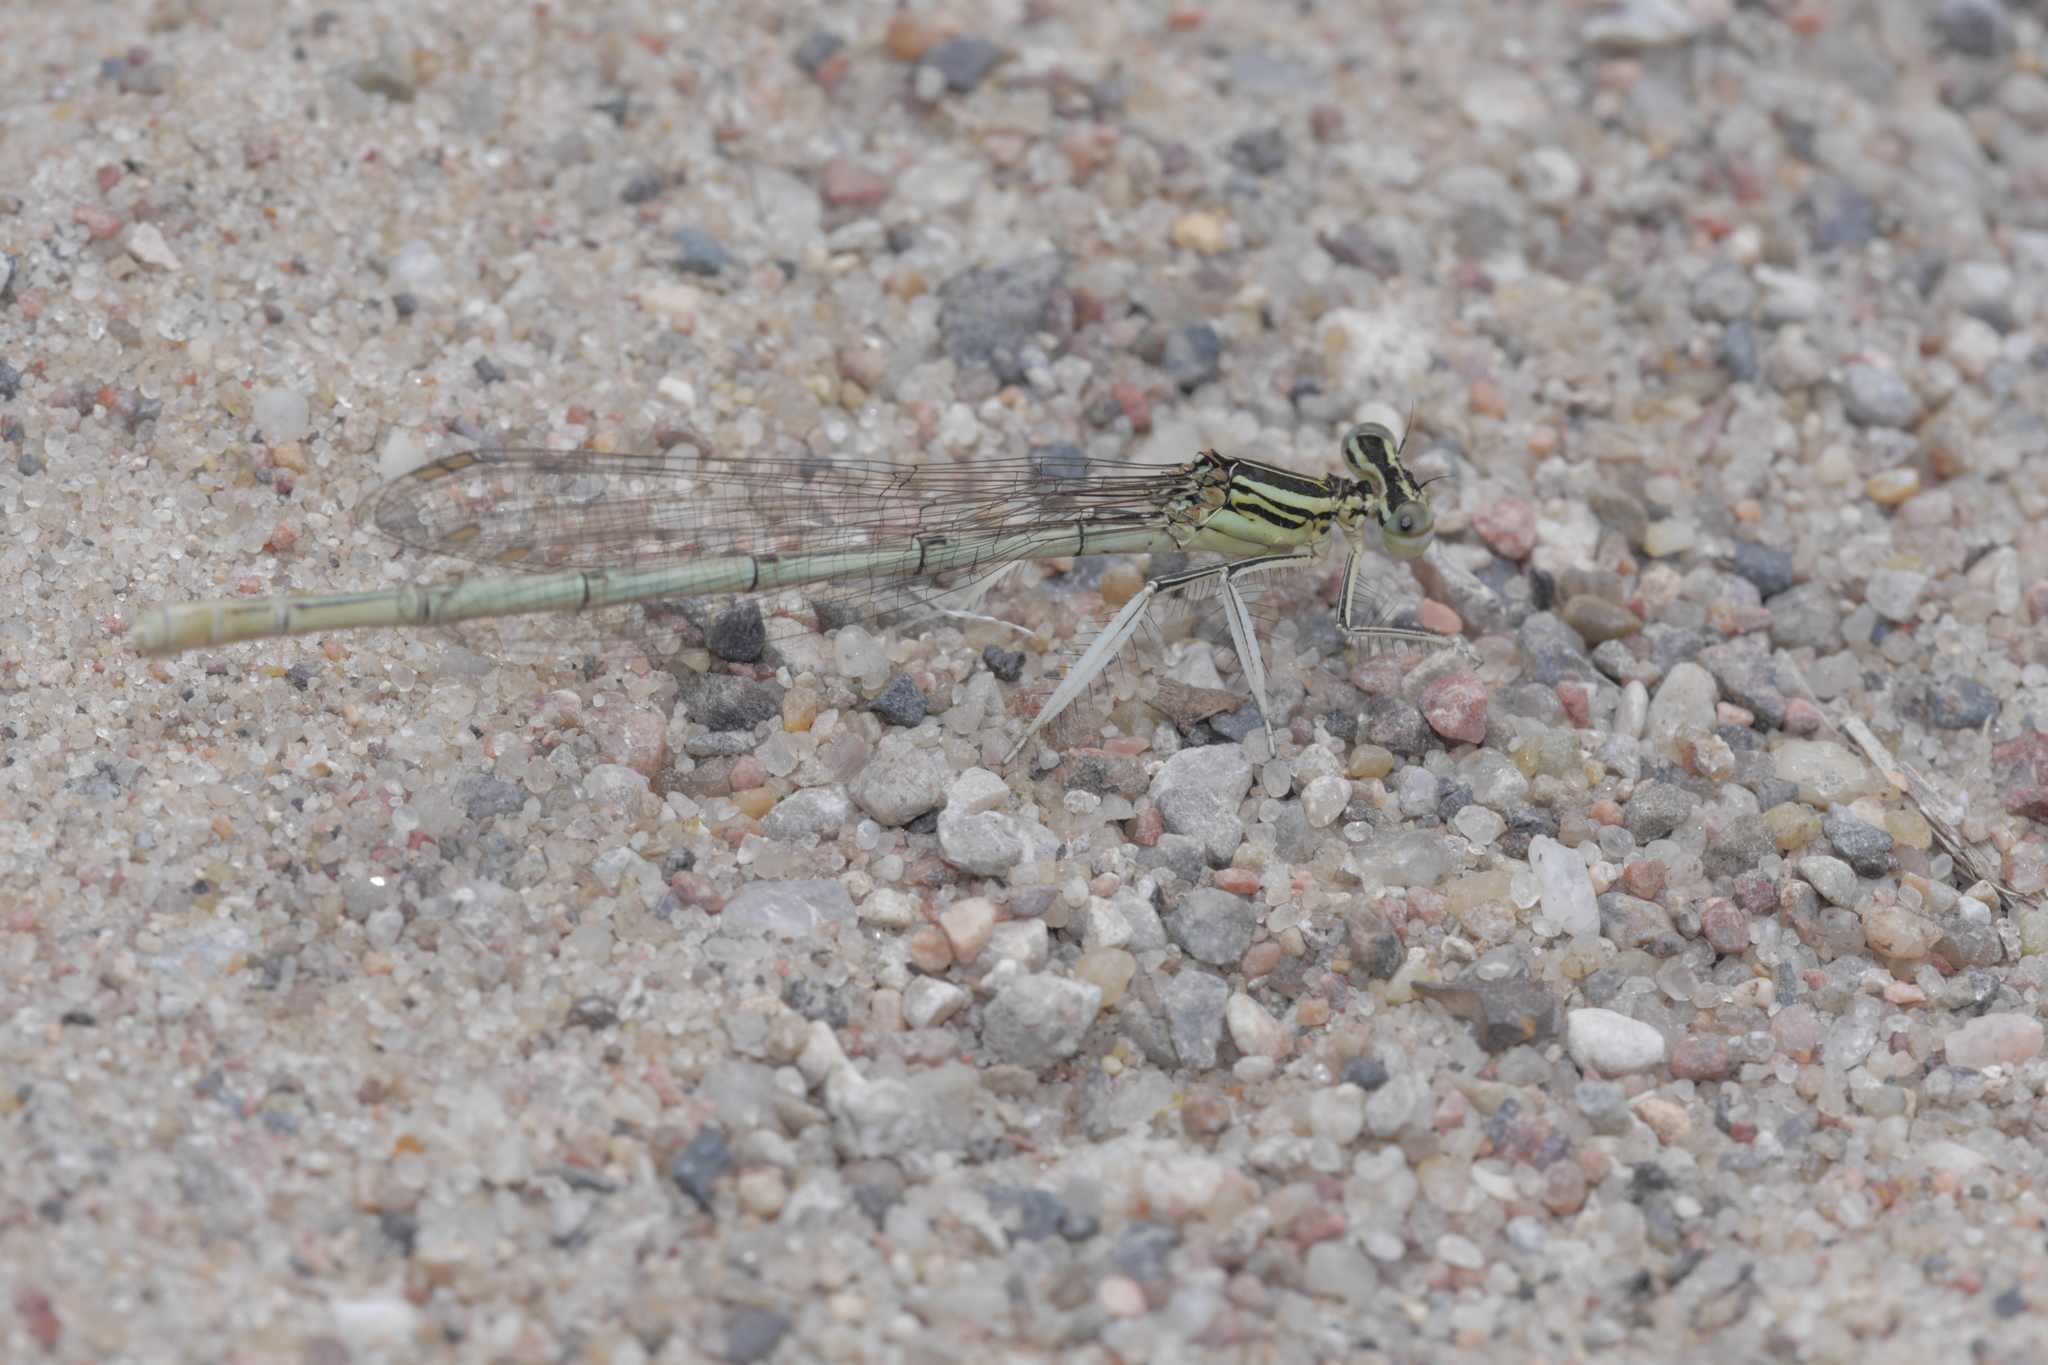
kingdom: Animalia
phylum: Arthropoda
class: Insecta
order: Odonata
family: Platycnemididae
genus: Platycnemis
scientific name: Platycnemis pennipes
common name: White-legged damselfly
